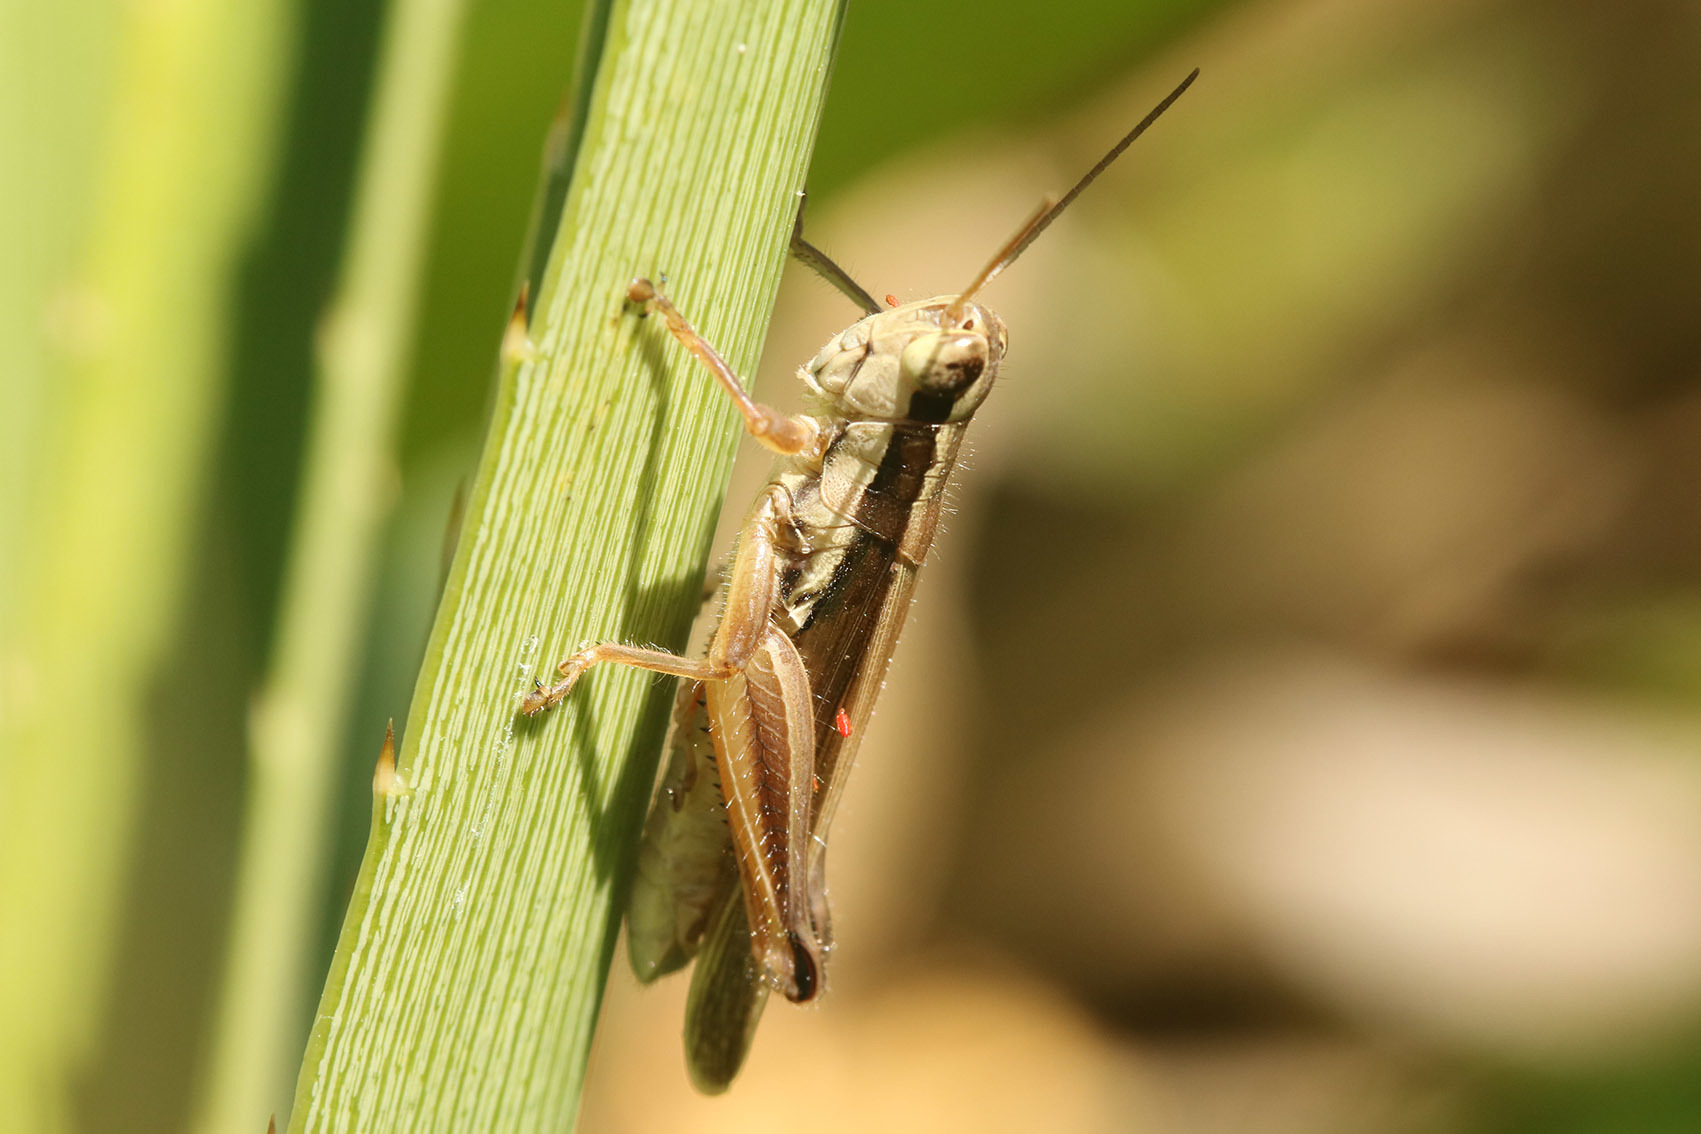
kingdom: Animalia
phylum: Arthropoda
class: Insecta
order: Orthoptera
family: Acrididae
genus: Scotussa
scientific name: Scotussa lemniscata
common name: Slender orange-legged grasshopper
